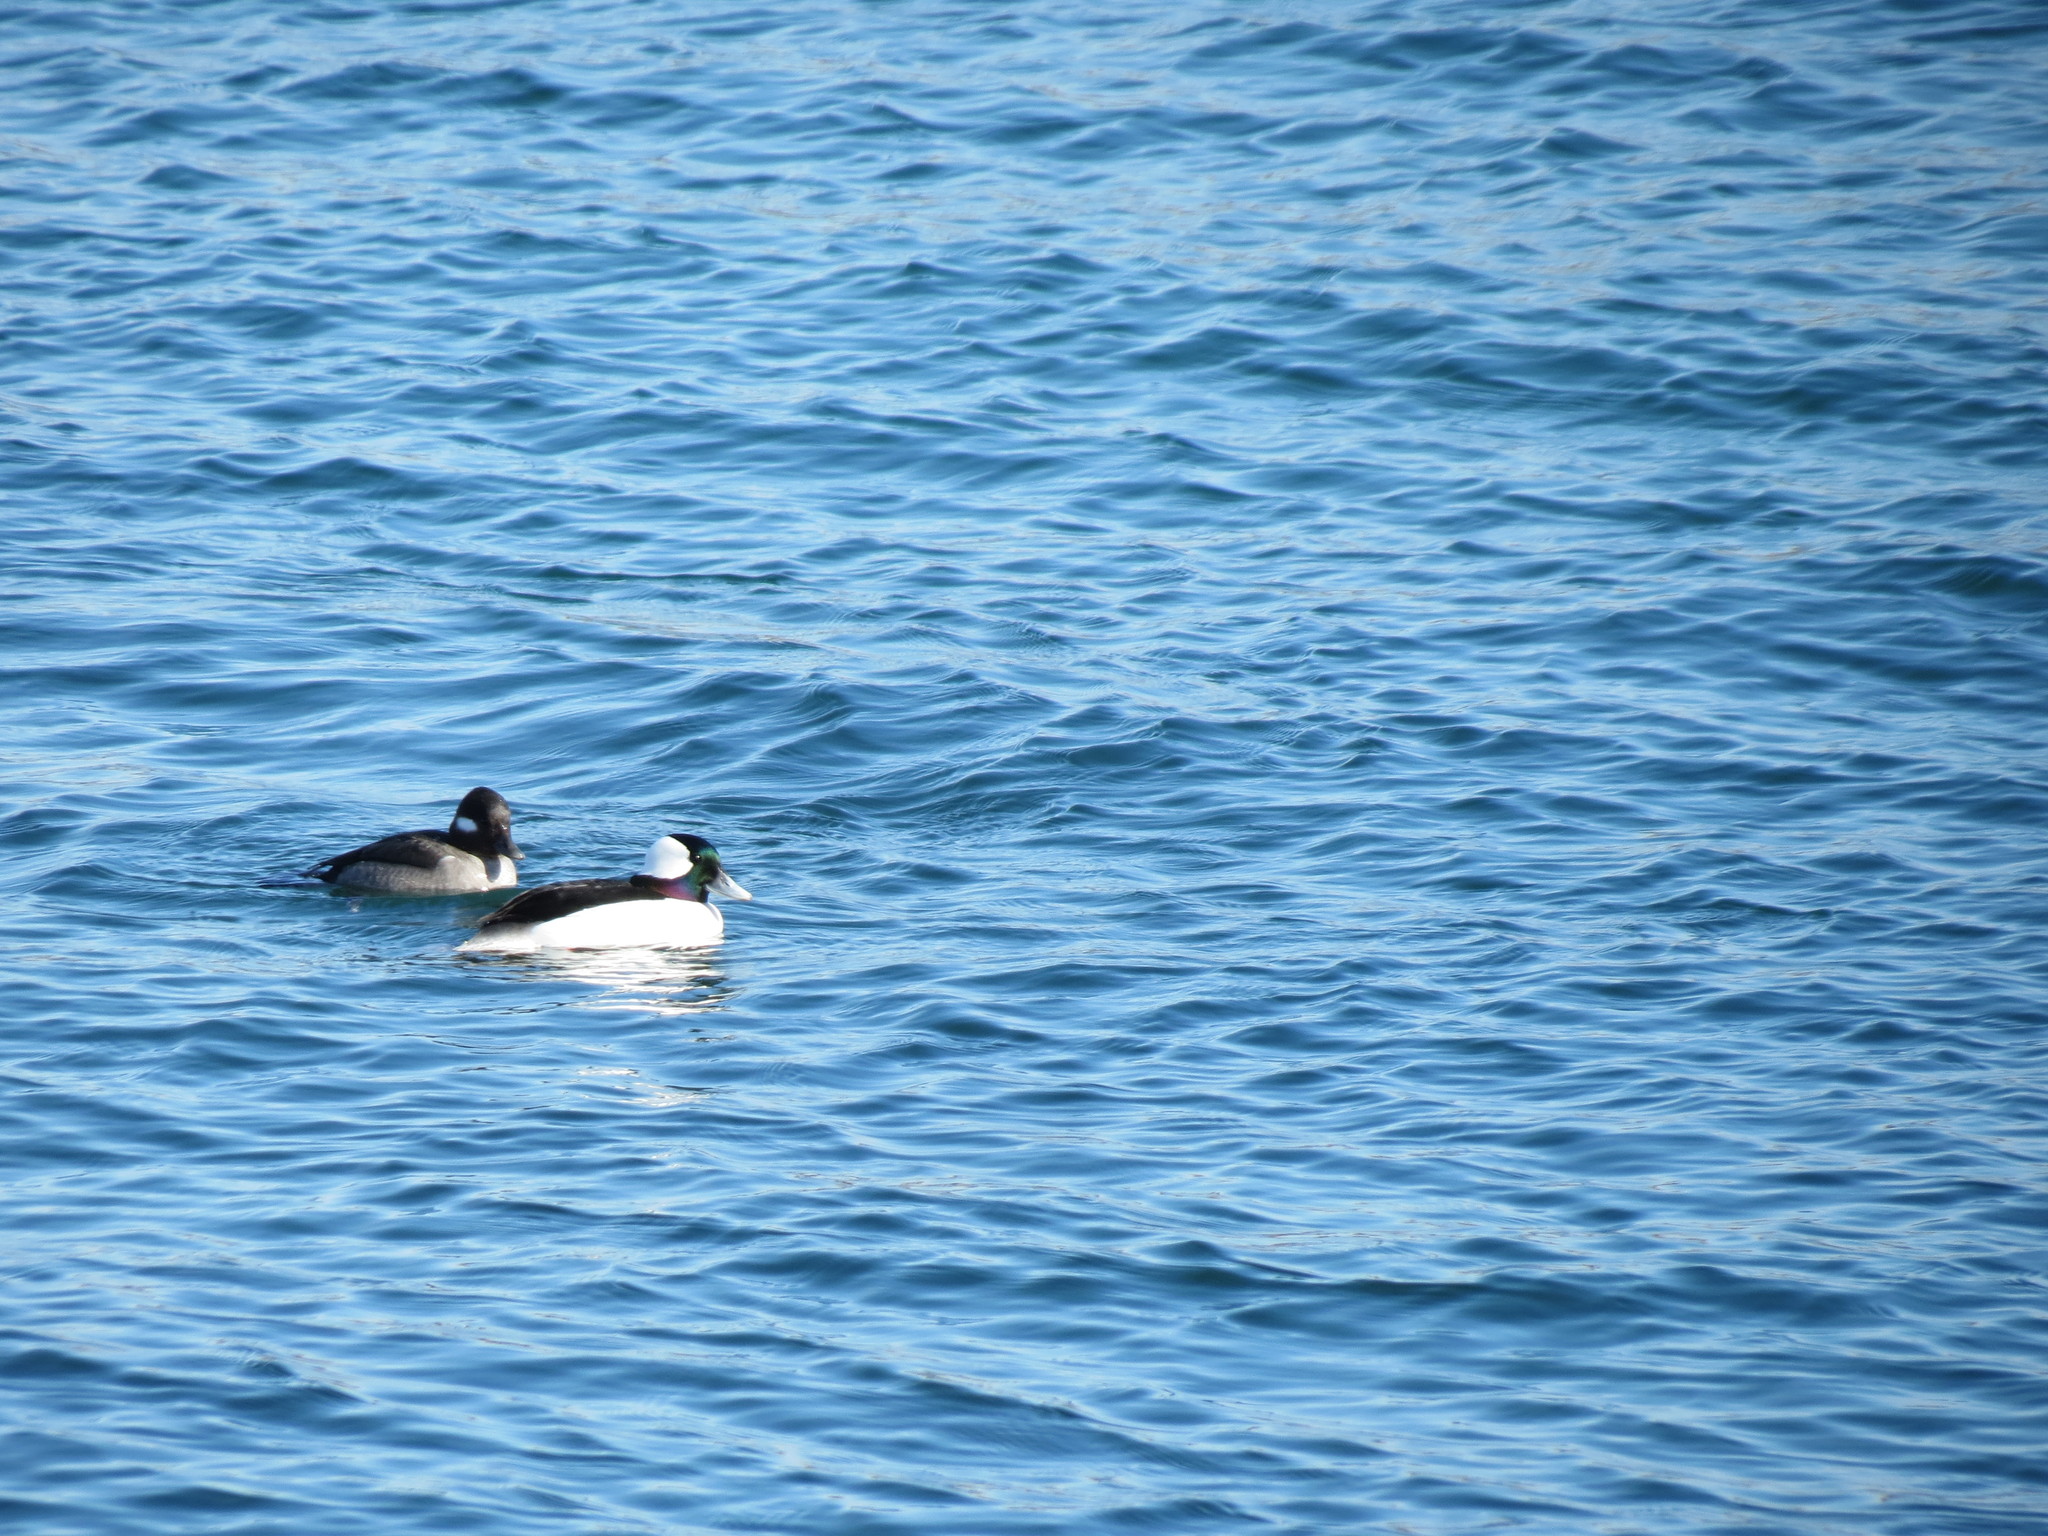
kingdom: Animalia
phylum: Chordata
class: Aves
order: Anseriformes
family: Anatidae
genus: Bucephala
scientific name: Bucephala albeola
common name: Bufflehead
